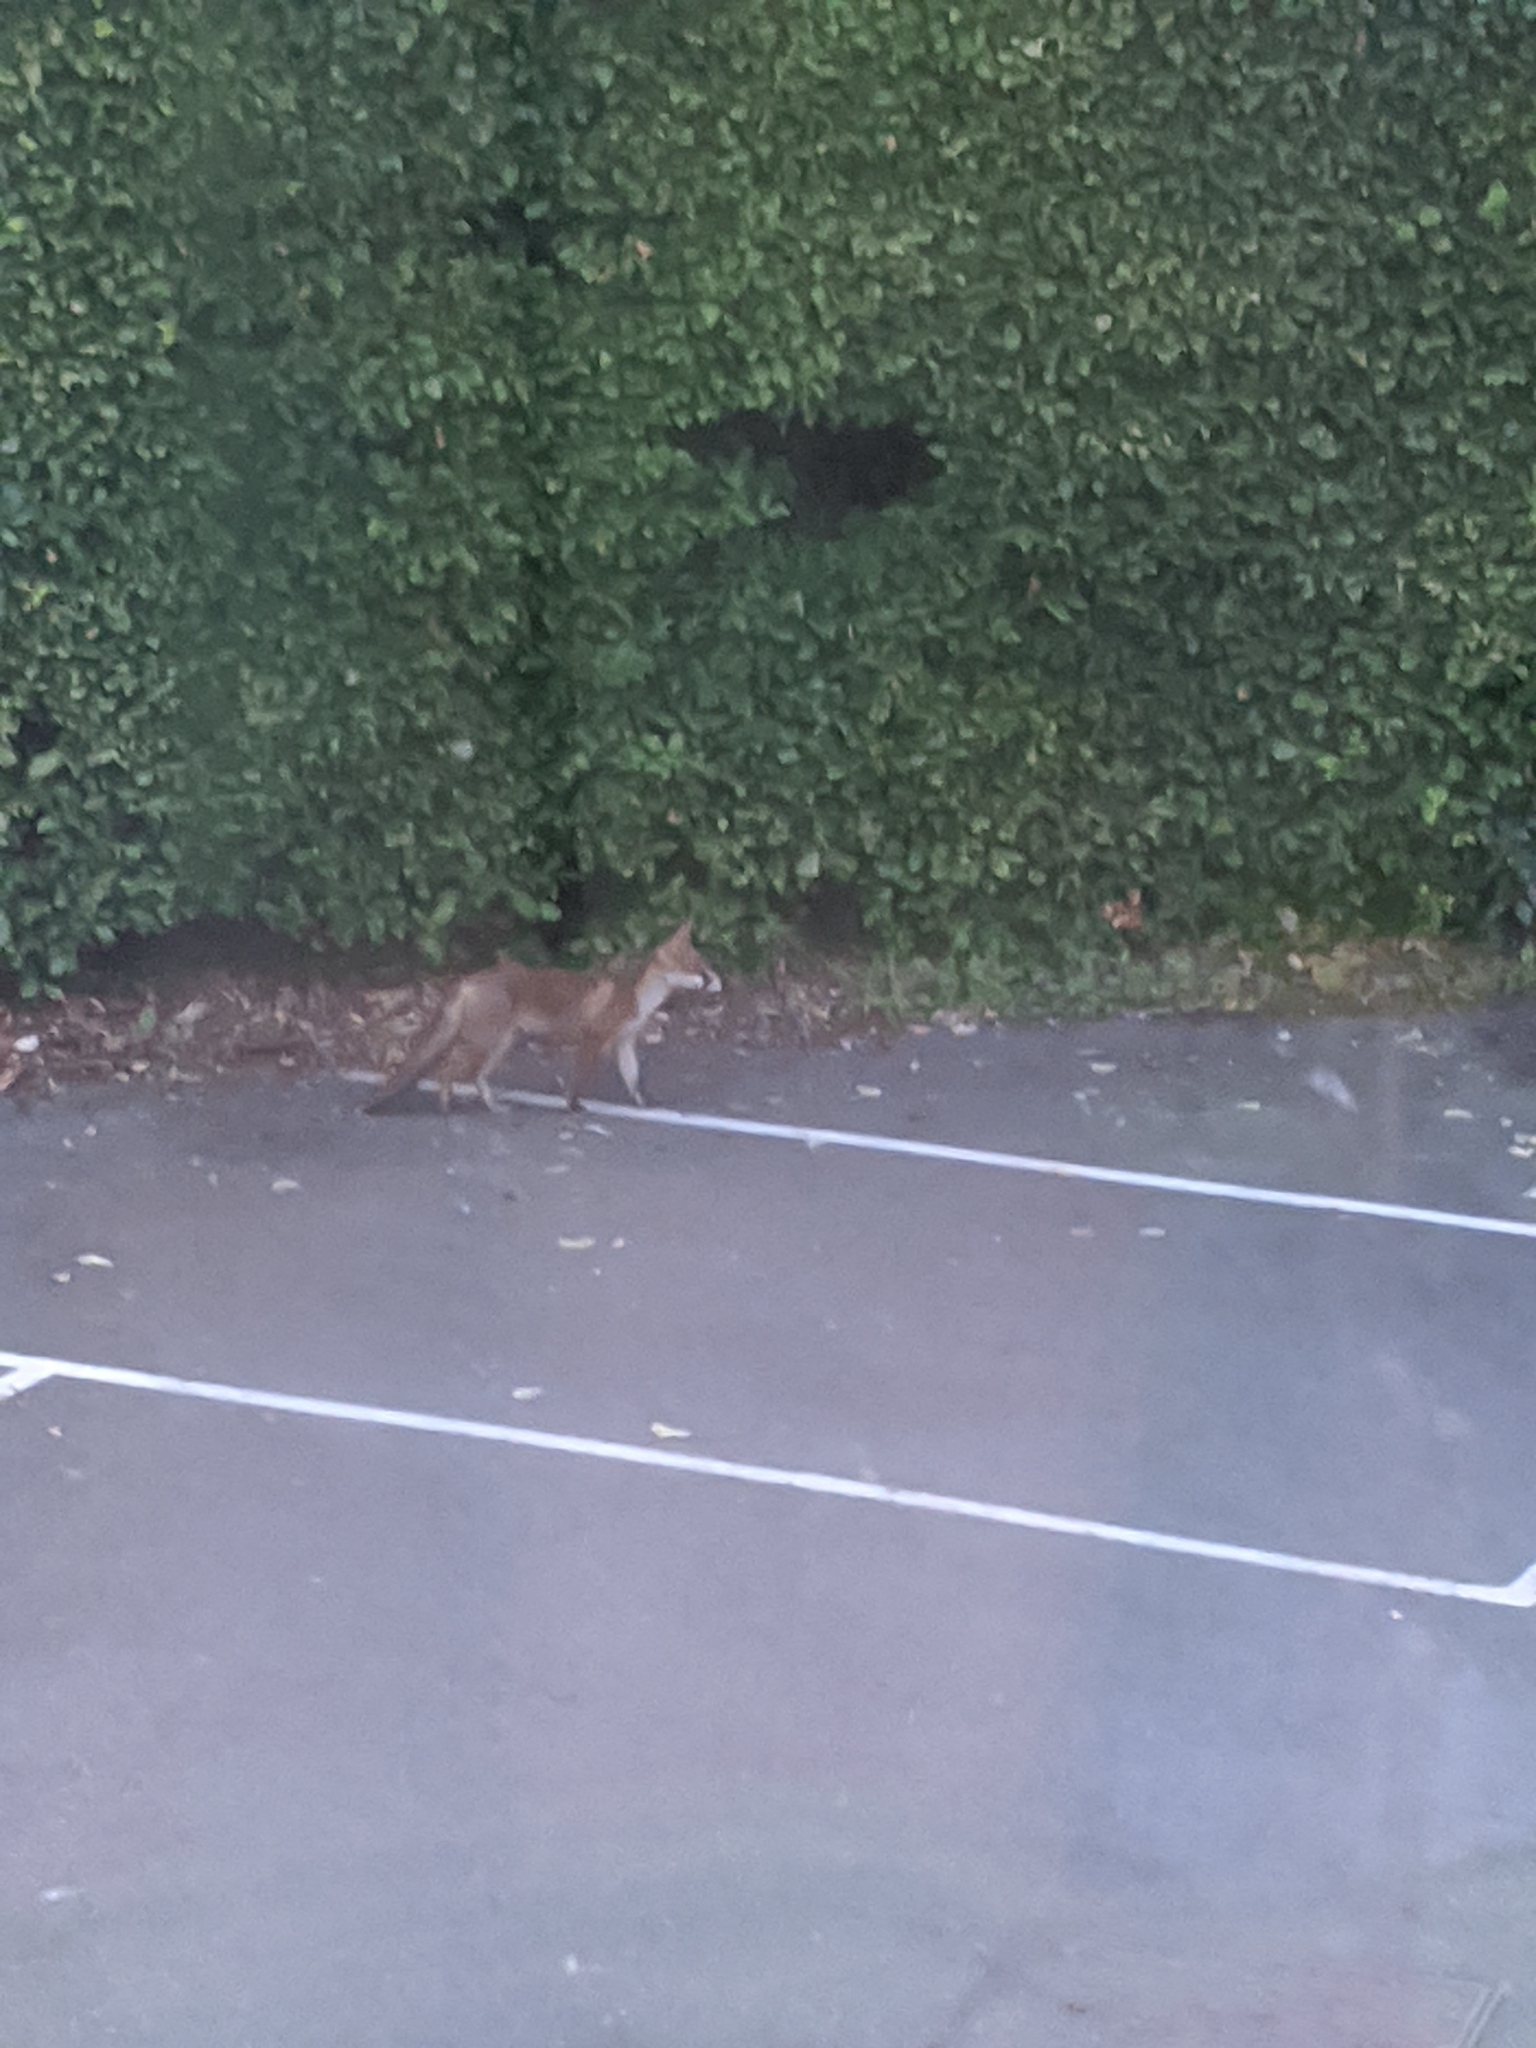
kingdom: Animalia
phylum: Chordata
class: Mammalia
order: Carnivora
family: Canidae
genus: Vulpes
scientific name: Vulpes vulpes
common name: Red fox
